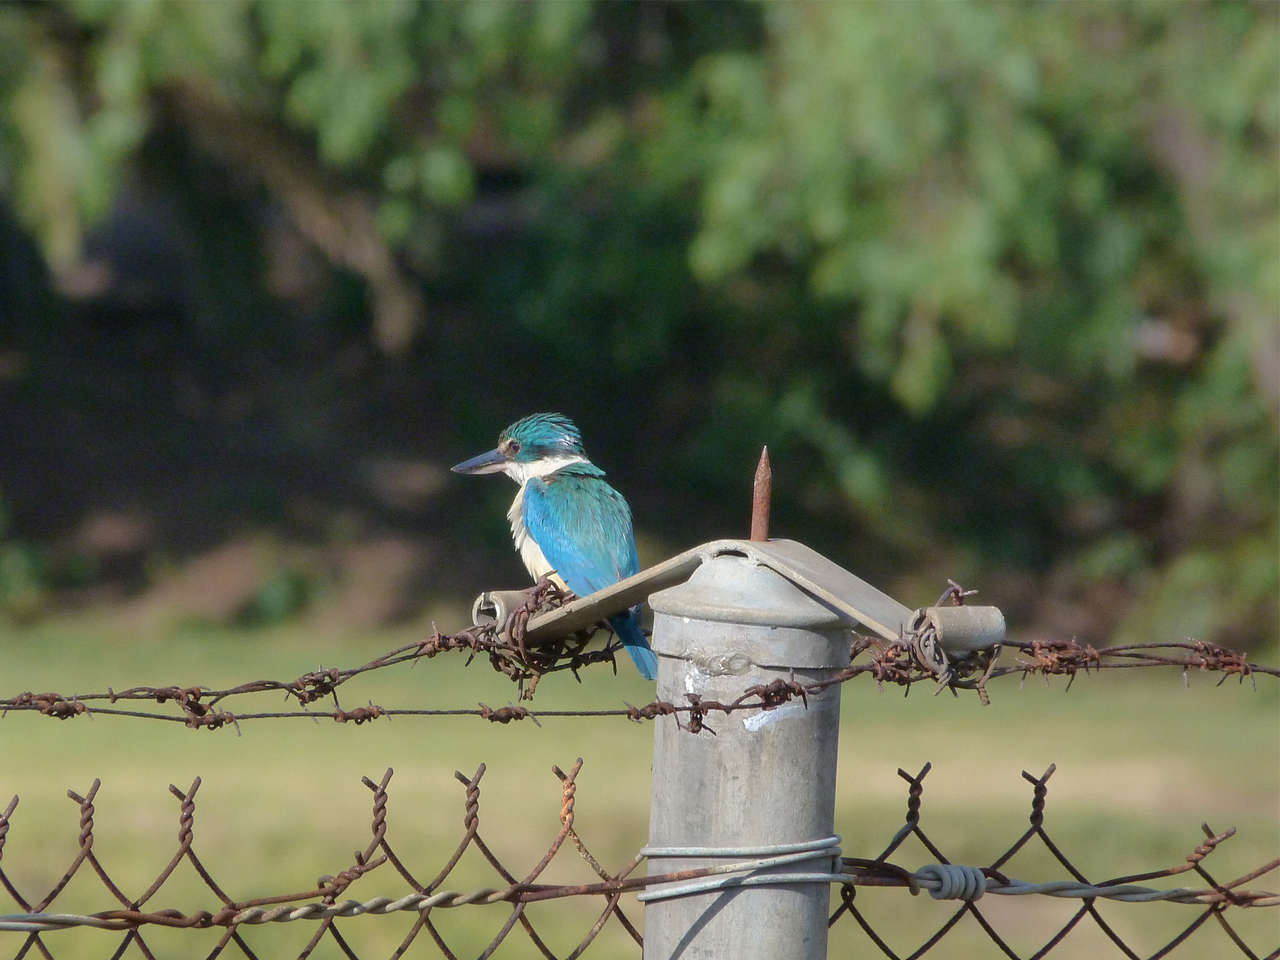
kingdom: Animalia
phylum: Chordata
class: Aves
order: Coraciiformes
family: Alcedinidae
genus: Todiramphus
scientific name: Todiramphus sanctus
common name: Sacred kingfisher
